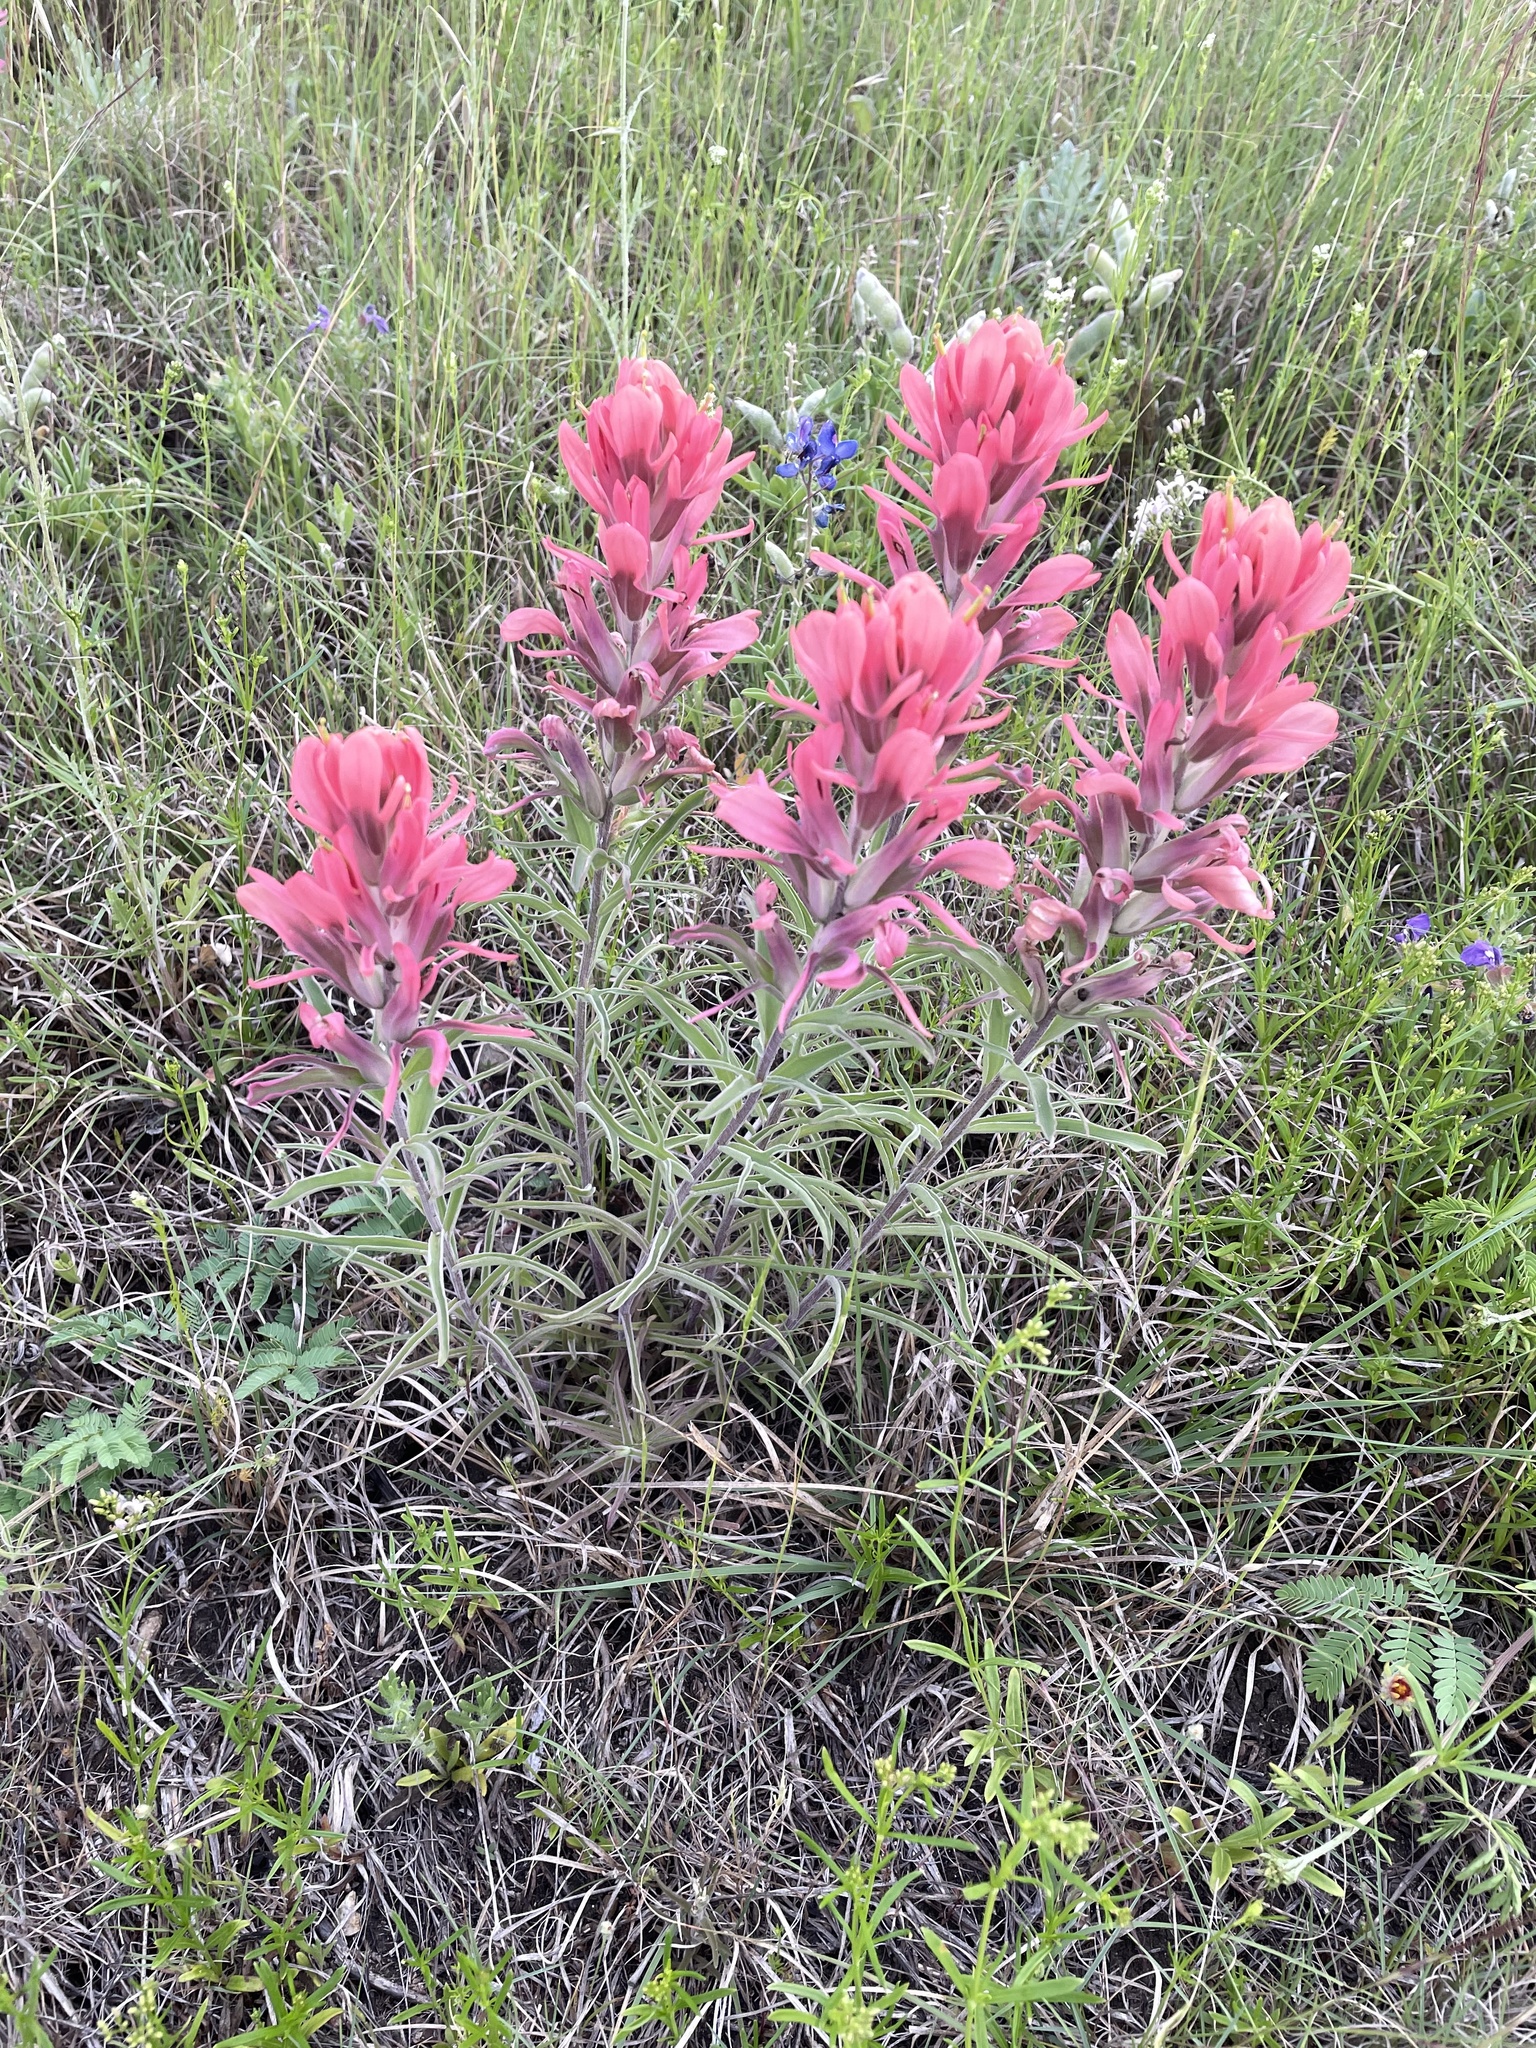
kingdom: Plantae
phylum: Tracheophyta
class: Magnoliopsida
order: Lamiales
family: Orobanchaceae
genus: Castilleja
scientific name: Castilleja purpurea
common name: Plains paintbrush
